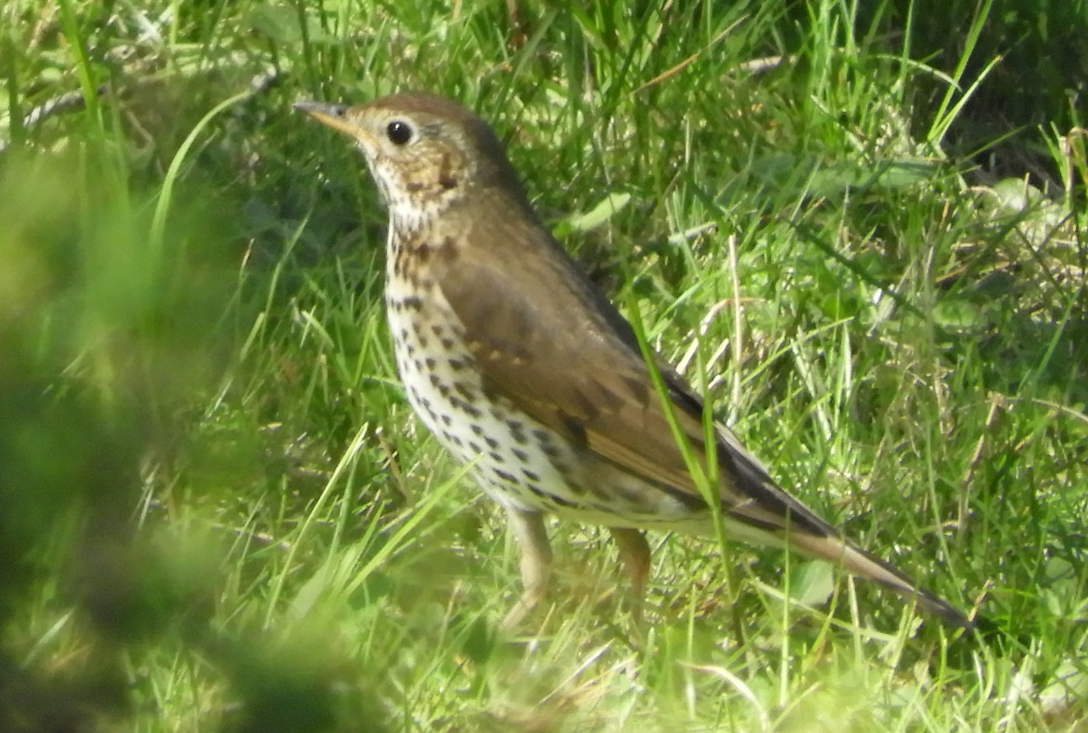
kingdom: Animalia
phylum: Chordata
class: Aves
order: Passeriformes
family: Turdidae
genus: Turdus
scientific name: Turdus philomelos
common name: Song thrush
